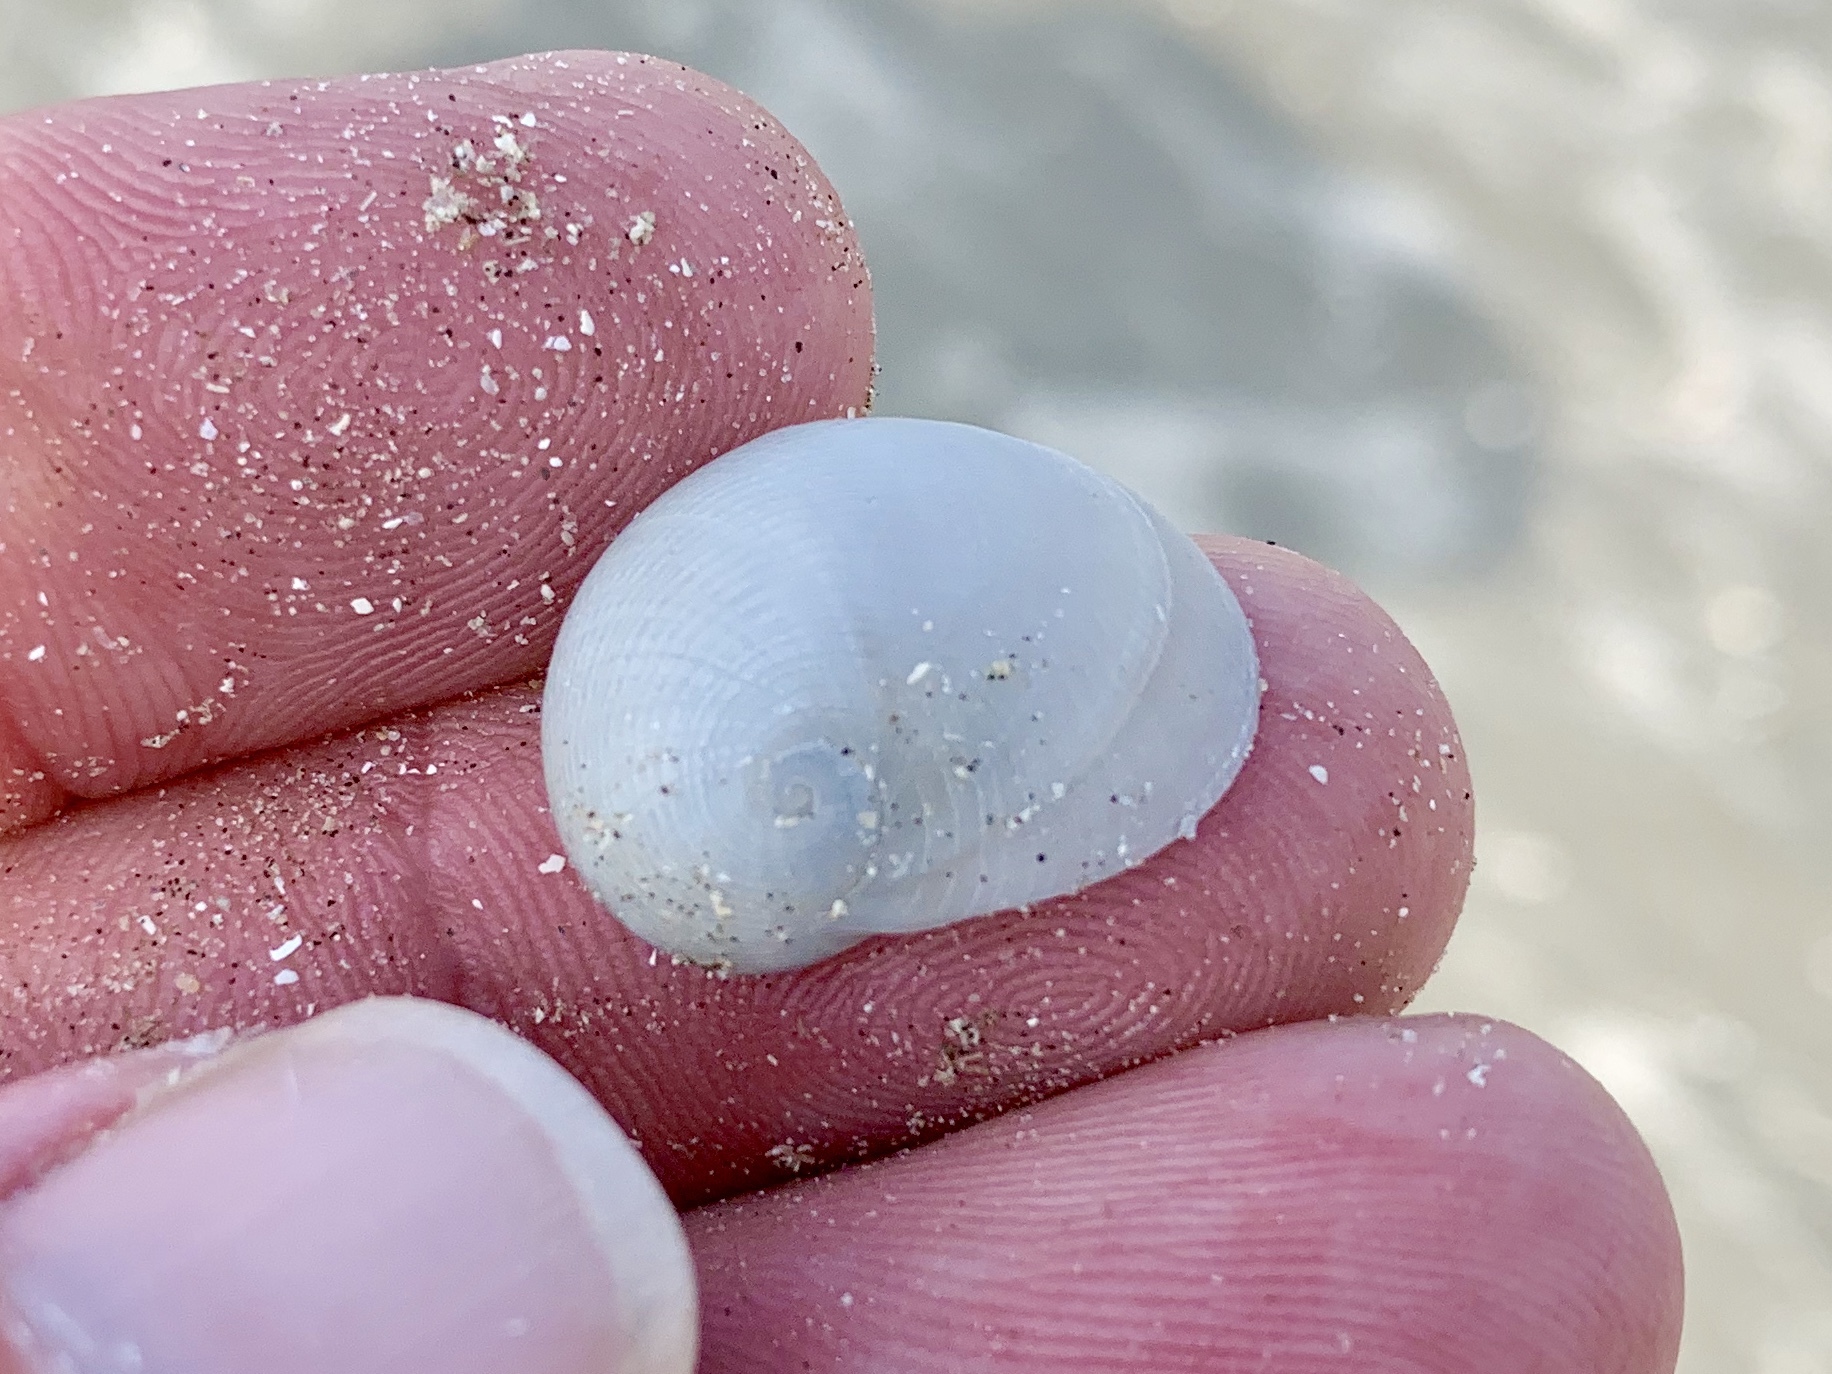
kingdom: Animalia
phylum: Mollusca
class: Gastropoda
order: Littorinimorpha
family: Naticidae
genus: Sinum
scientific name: Sinum perspectivum
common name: White baby ear
